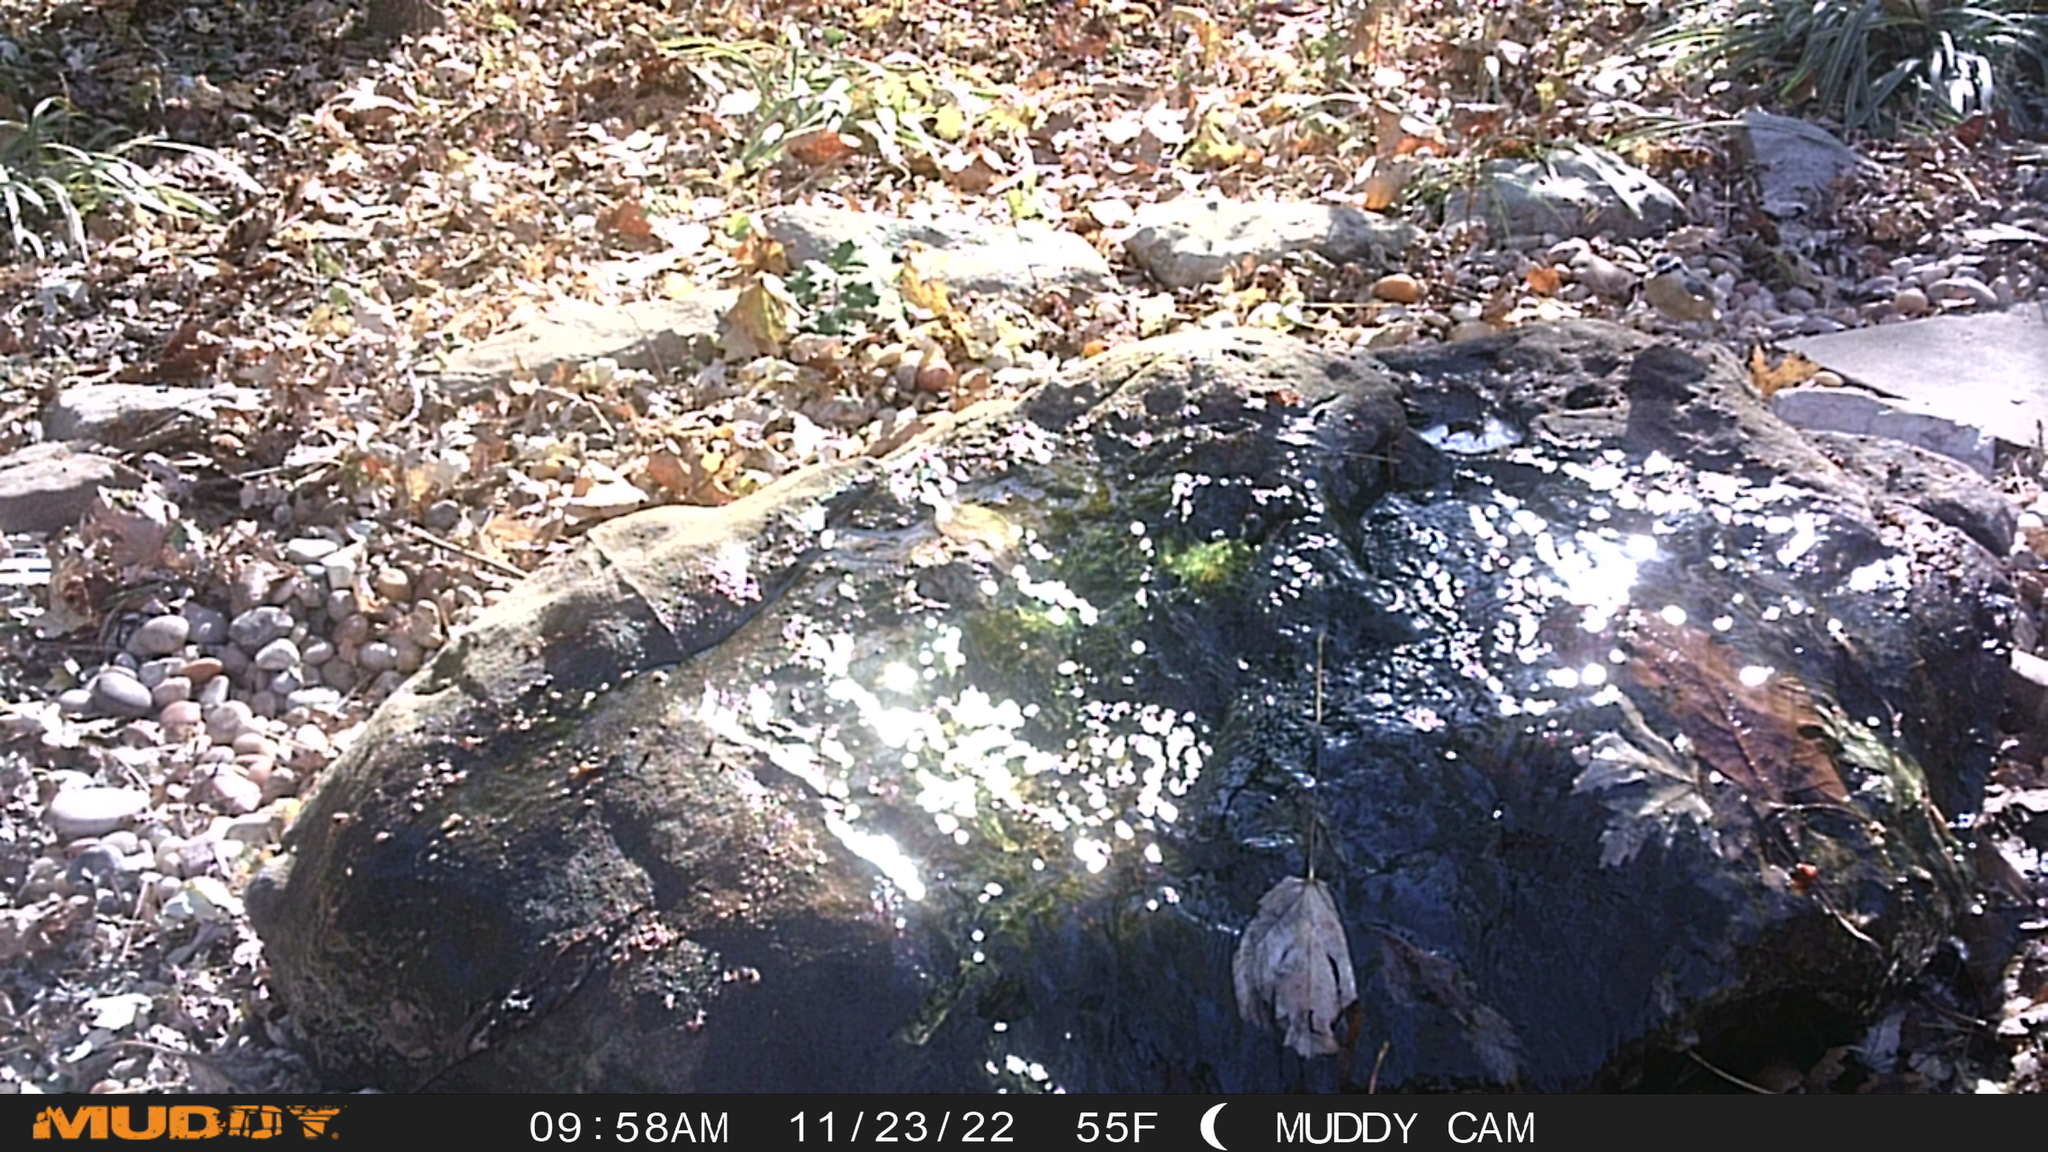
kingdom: Animalia
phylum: Chordata
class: Aves
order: Passeriformes
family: Sittidae
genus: Sitta
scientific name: Sitta canadensis
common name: Red-breasted nuthatch
